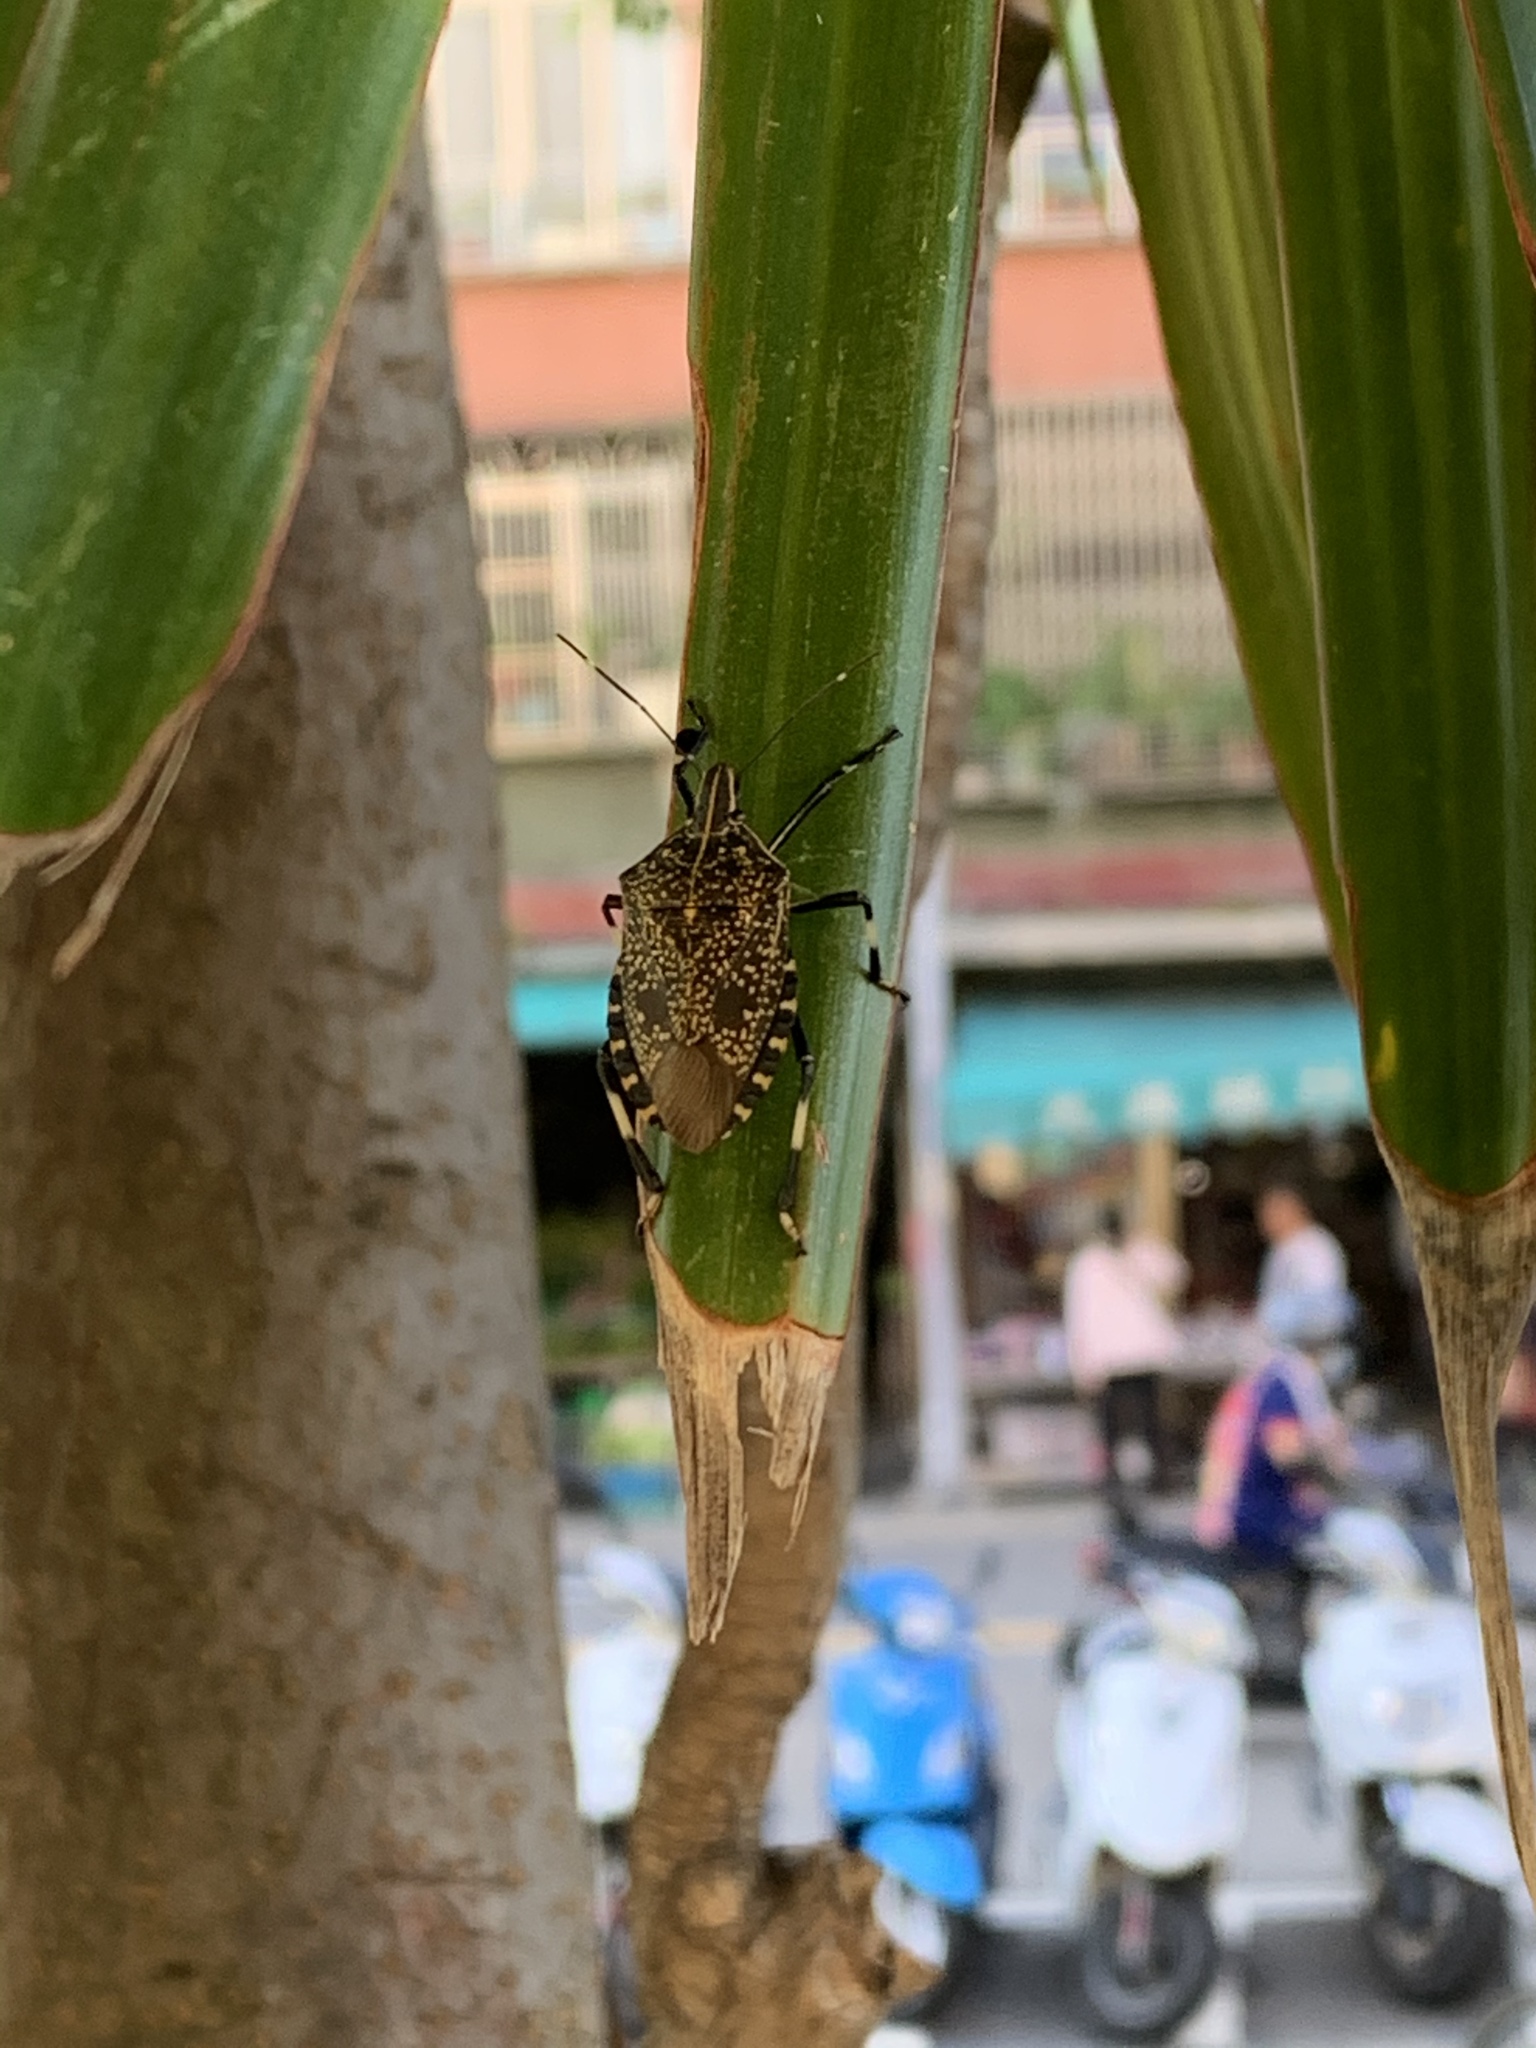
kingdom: Animalia
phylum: Arthropoda
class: Insecta
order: Hemiptera
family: Pentatomidae
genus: Erthesina
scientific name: Erthesina fullo
